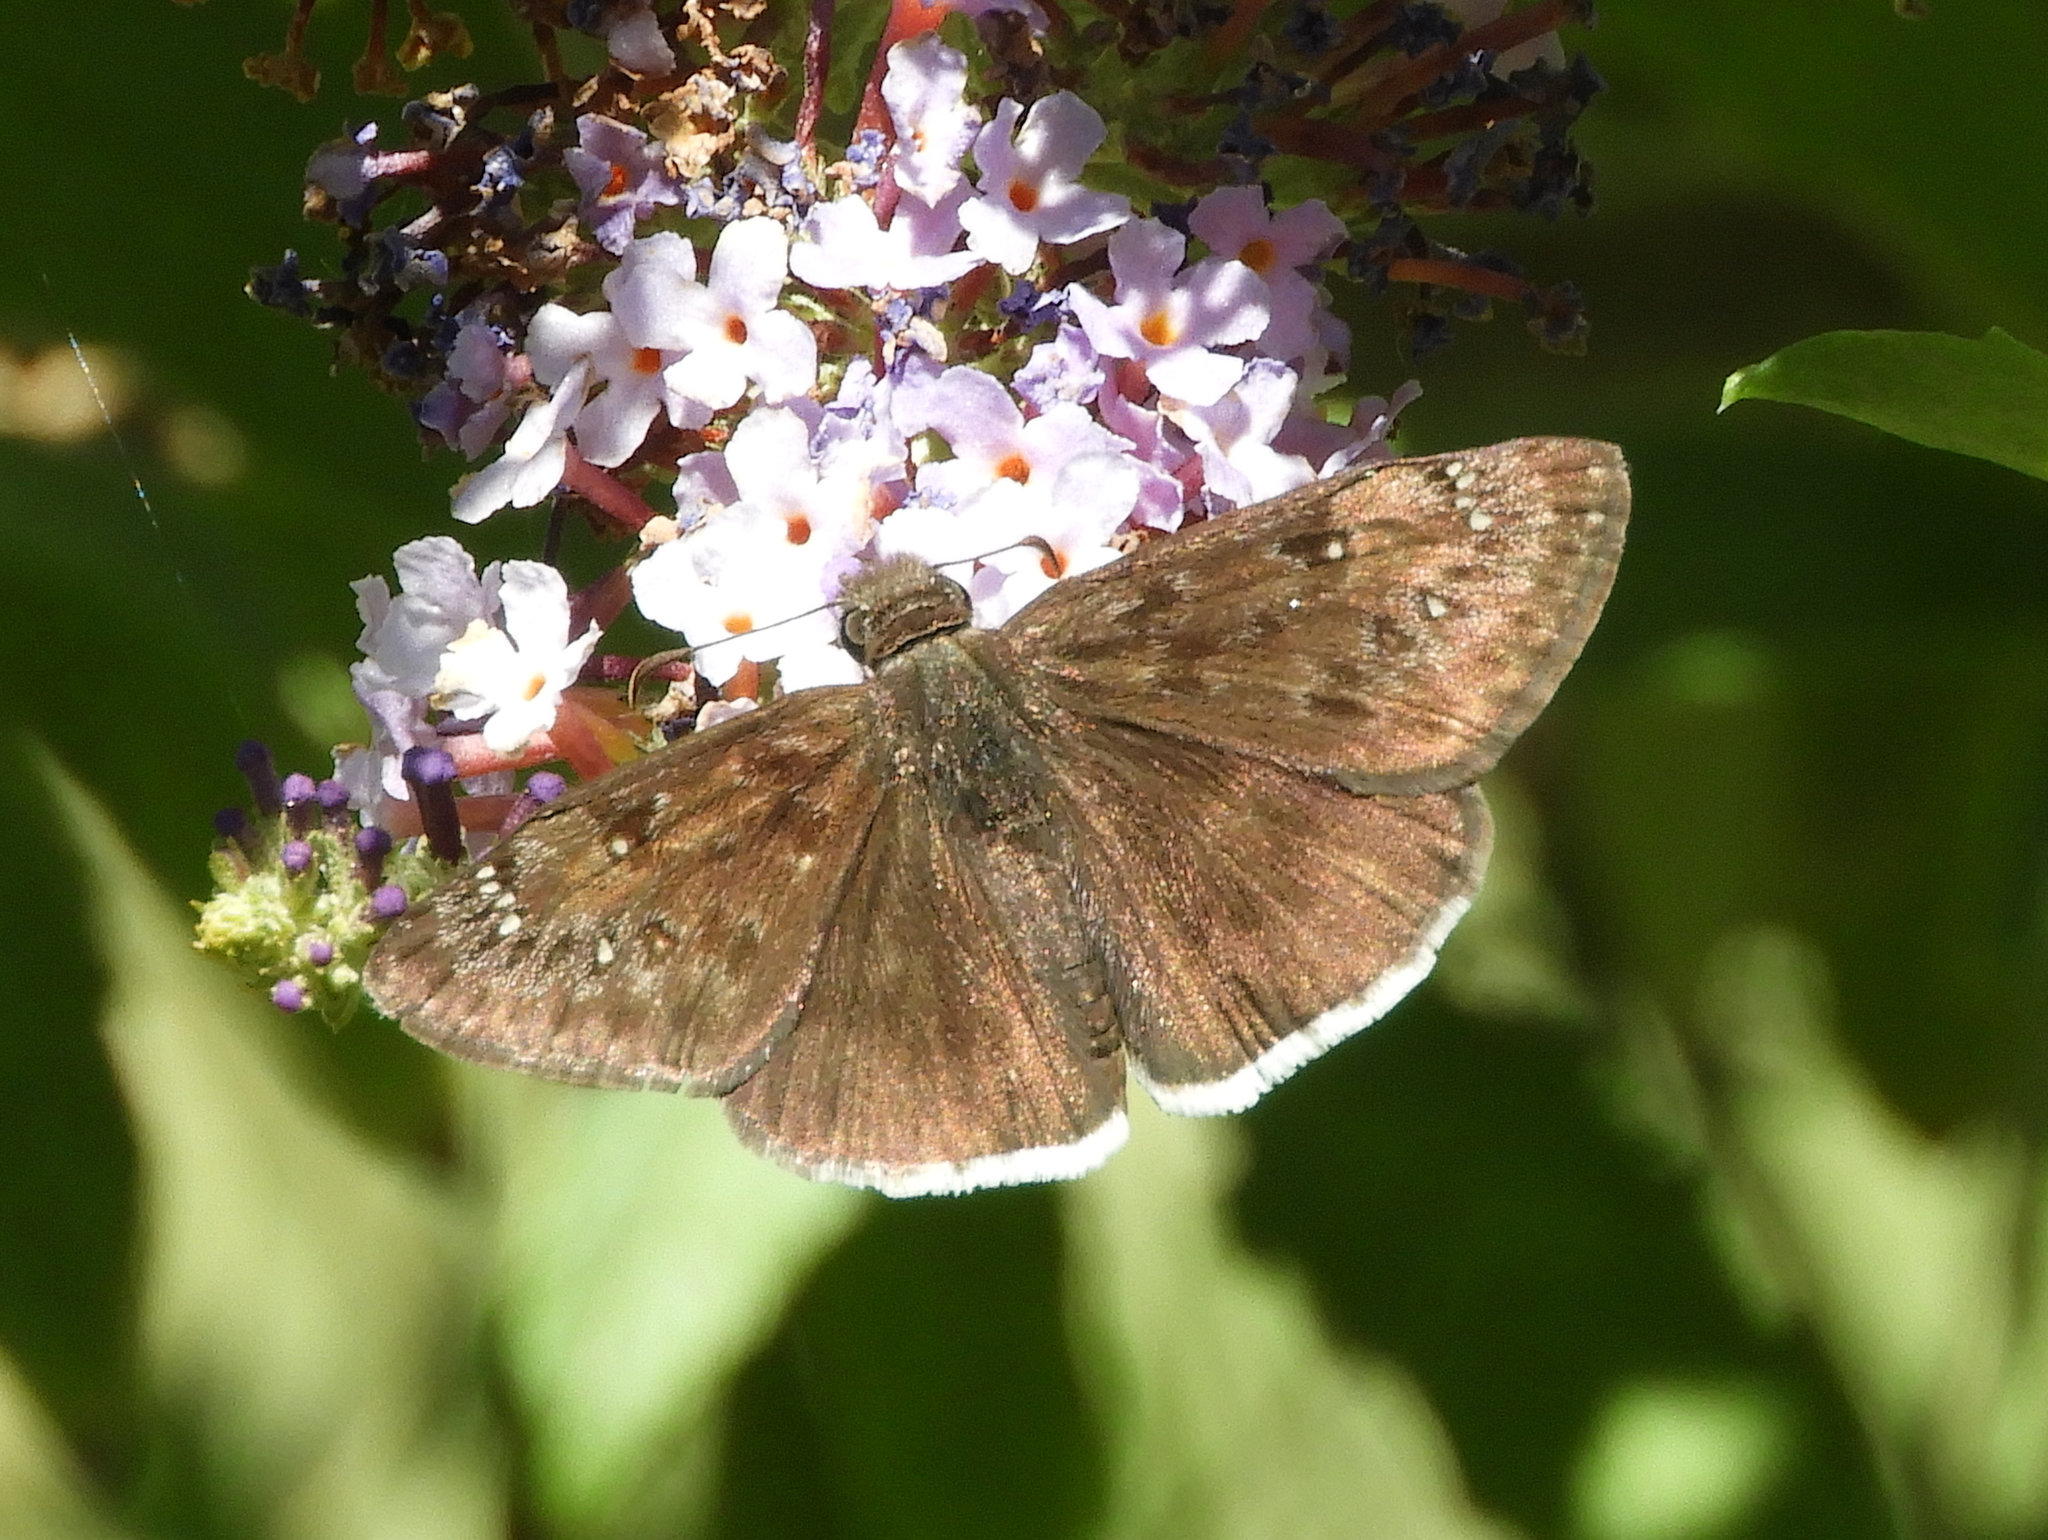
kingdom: Animalia
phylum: Arthropoda
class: Insecta
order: Lepidoptera
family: Hesperiidae
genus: Erynnis
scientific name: Erynnis tristis
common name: Mournful duskywing
